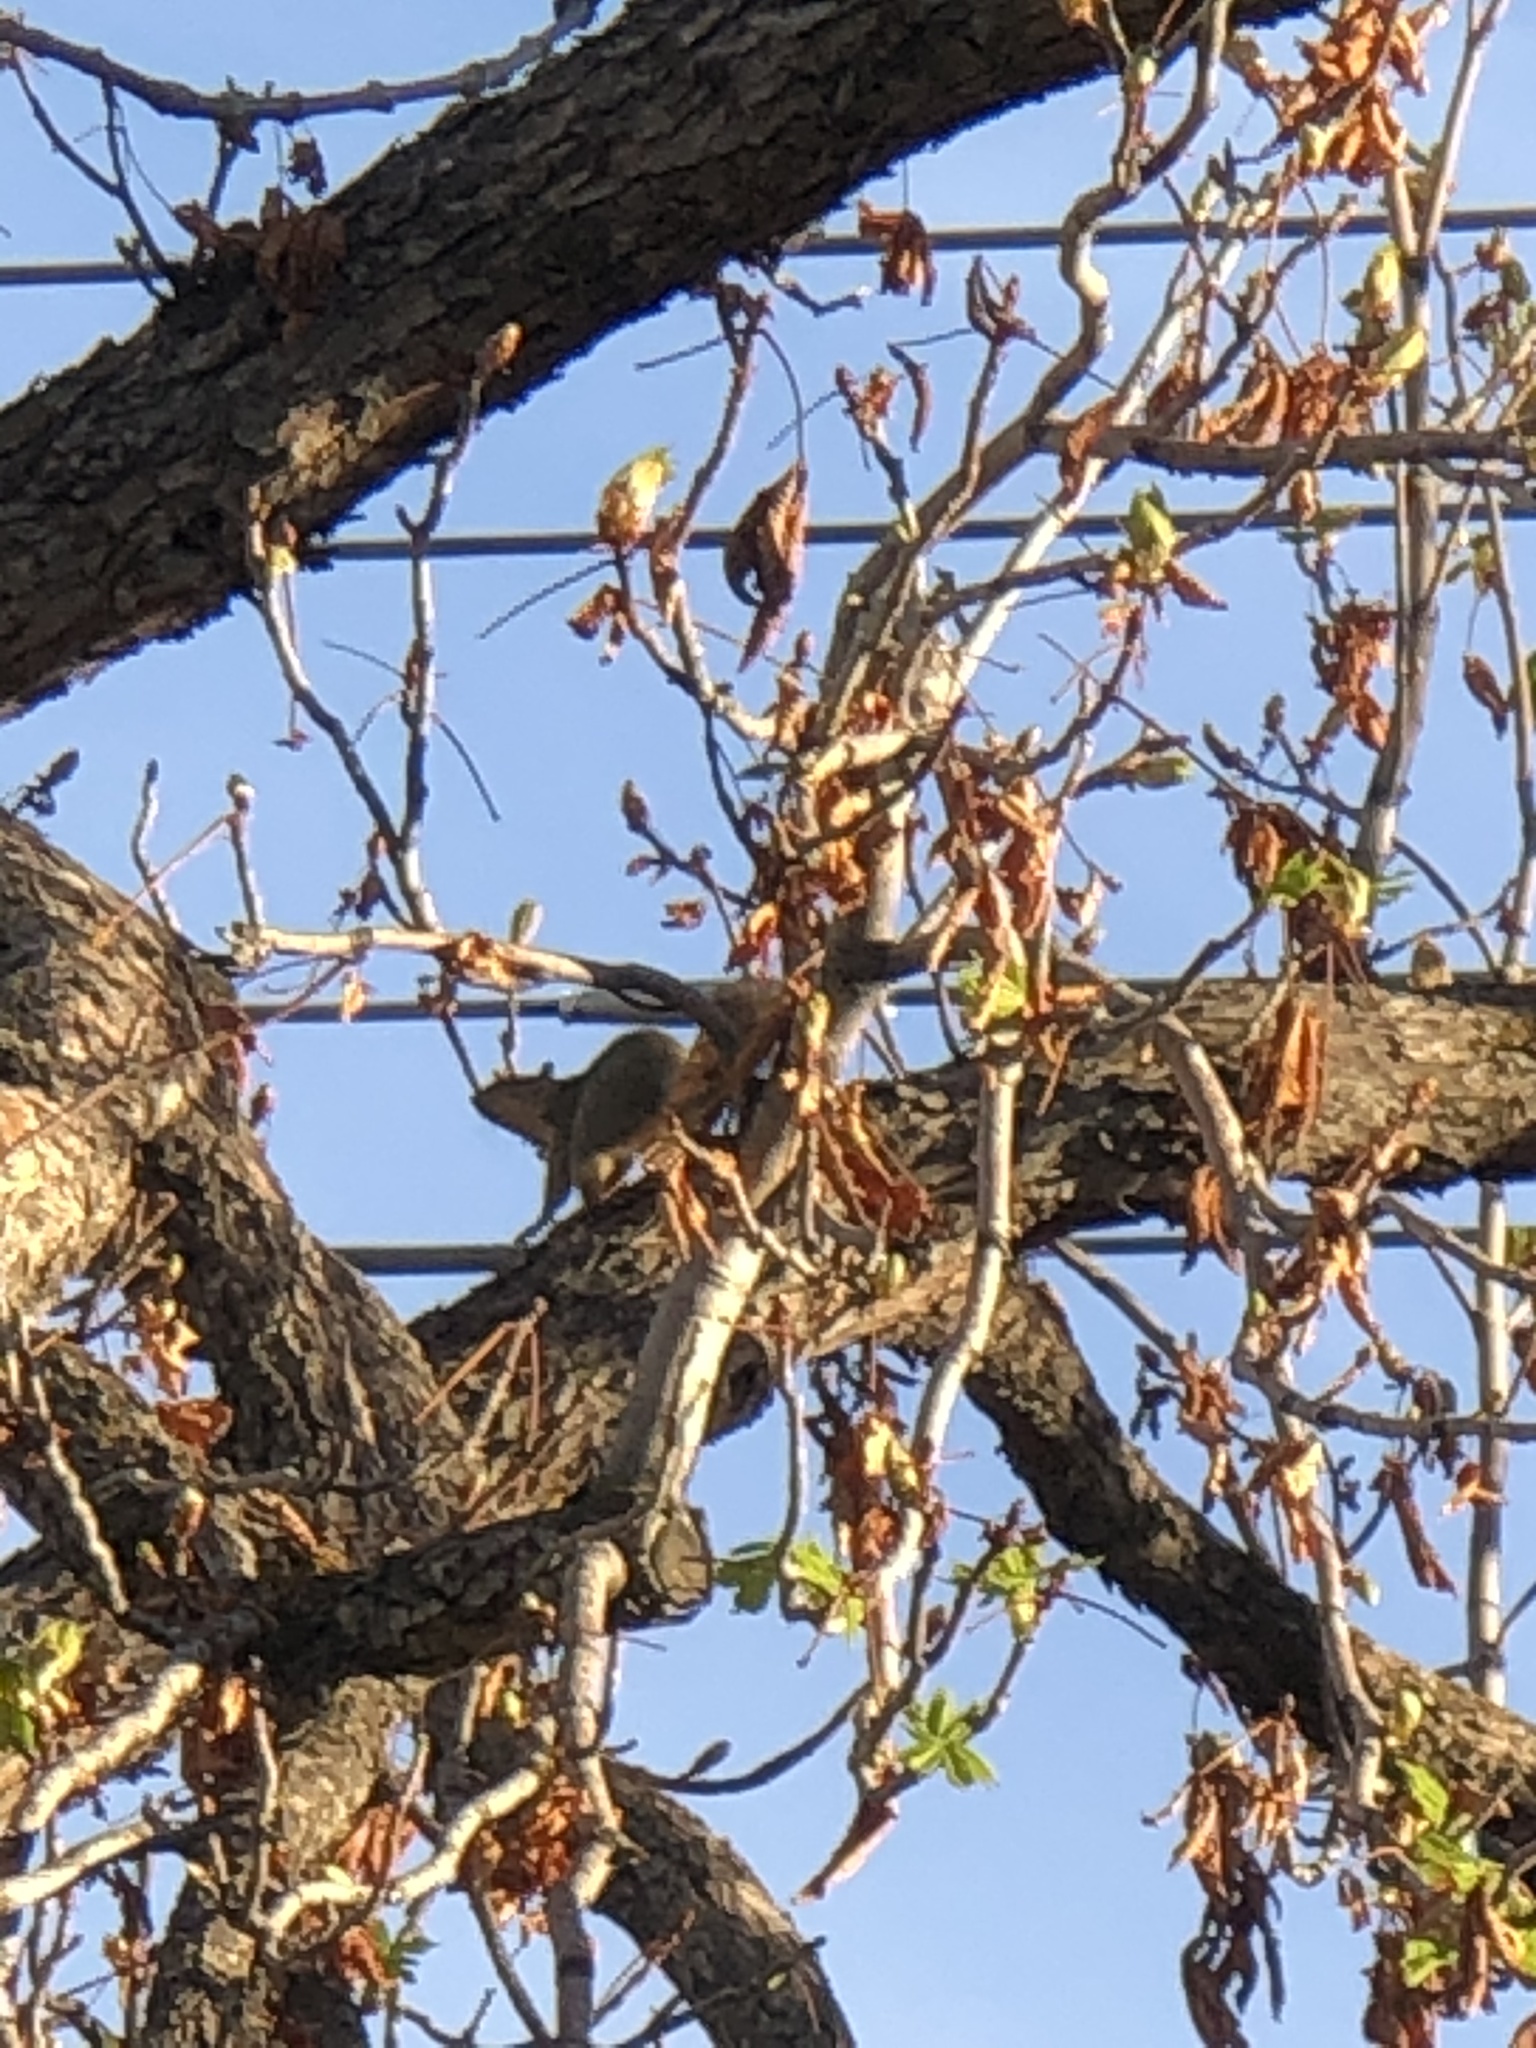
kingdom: Animalia
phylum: Chordata
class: Mammalia
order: Rodentia
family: Sciuridae
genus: Sciurus
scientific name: Sciurus niger
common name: Fox squirrel
